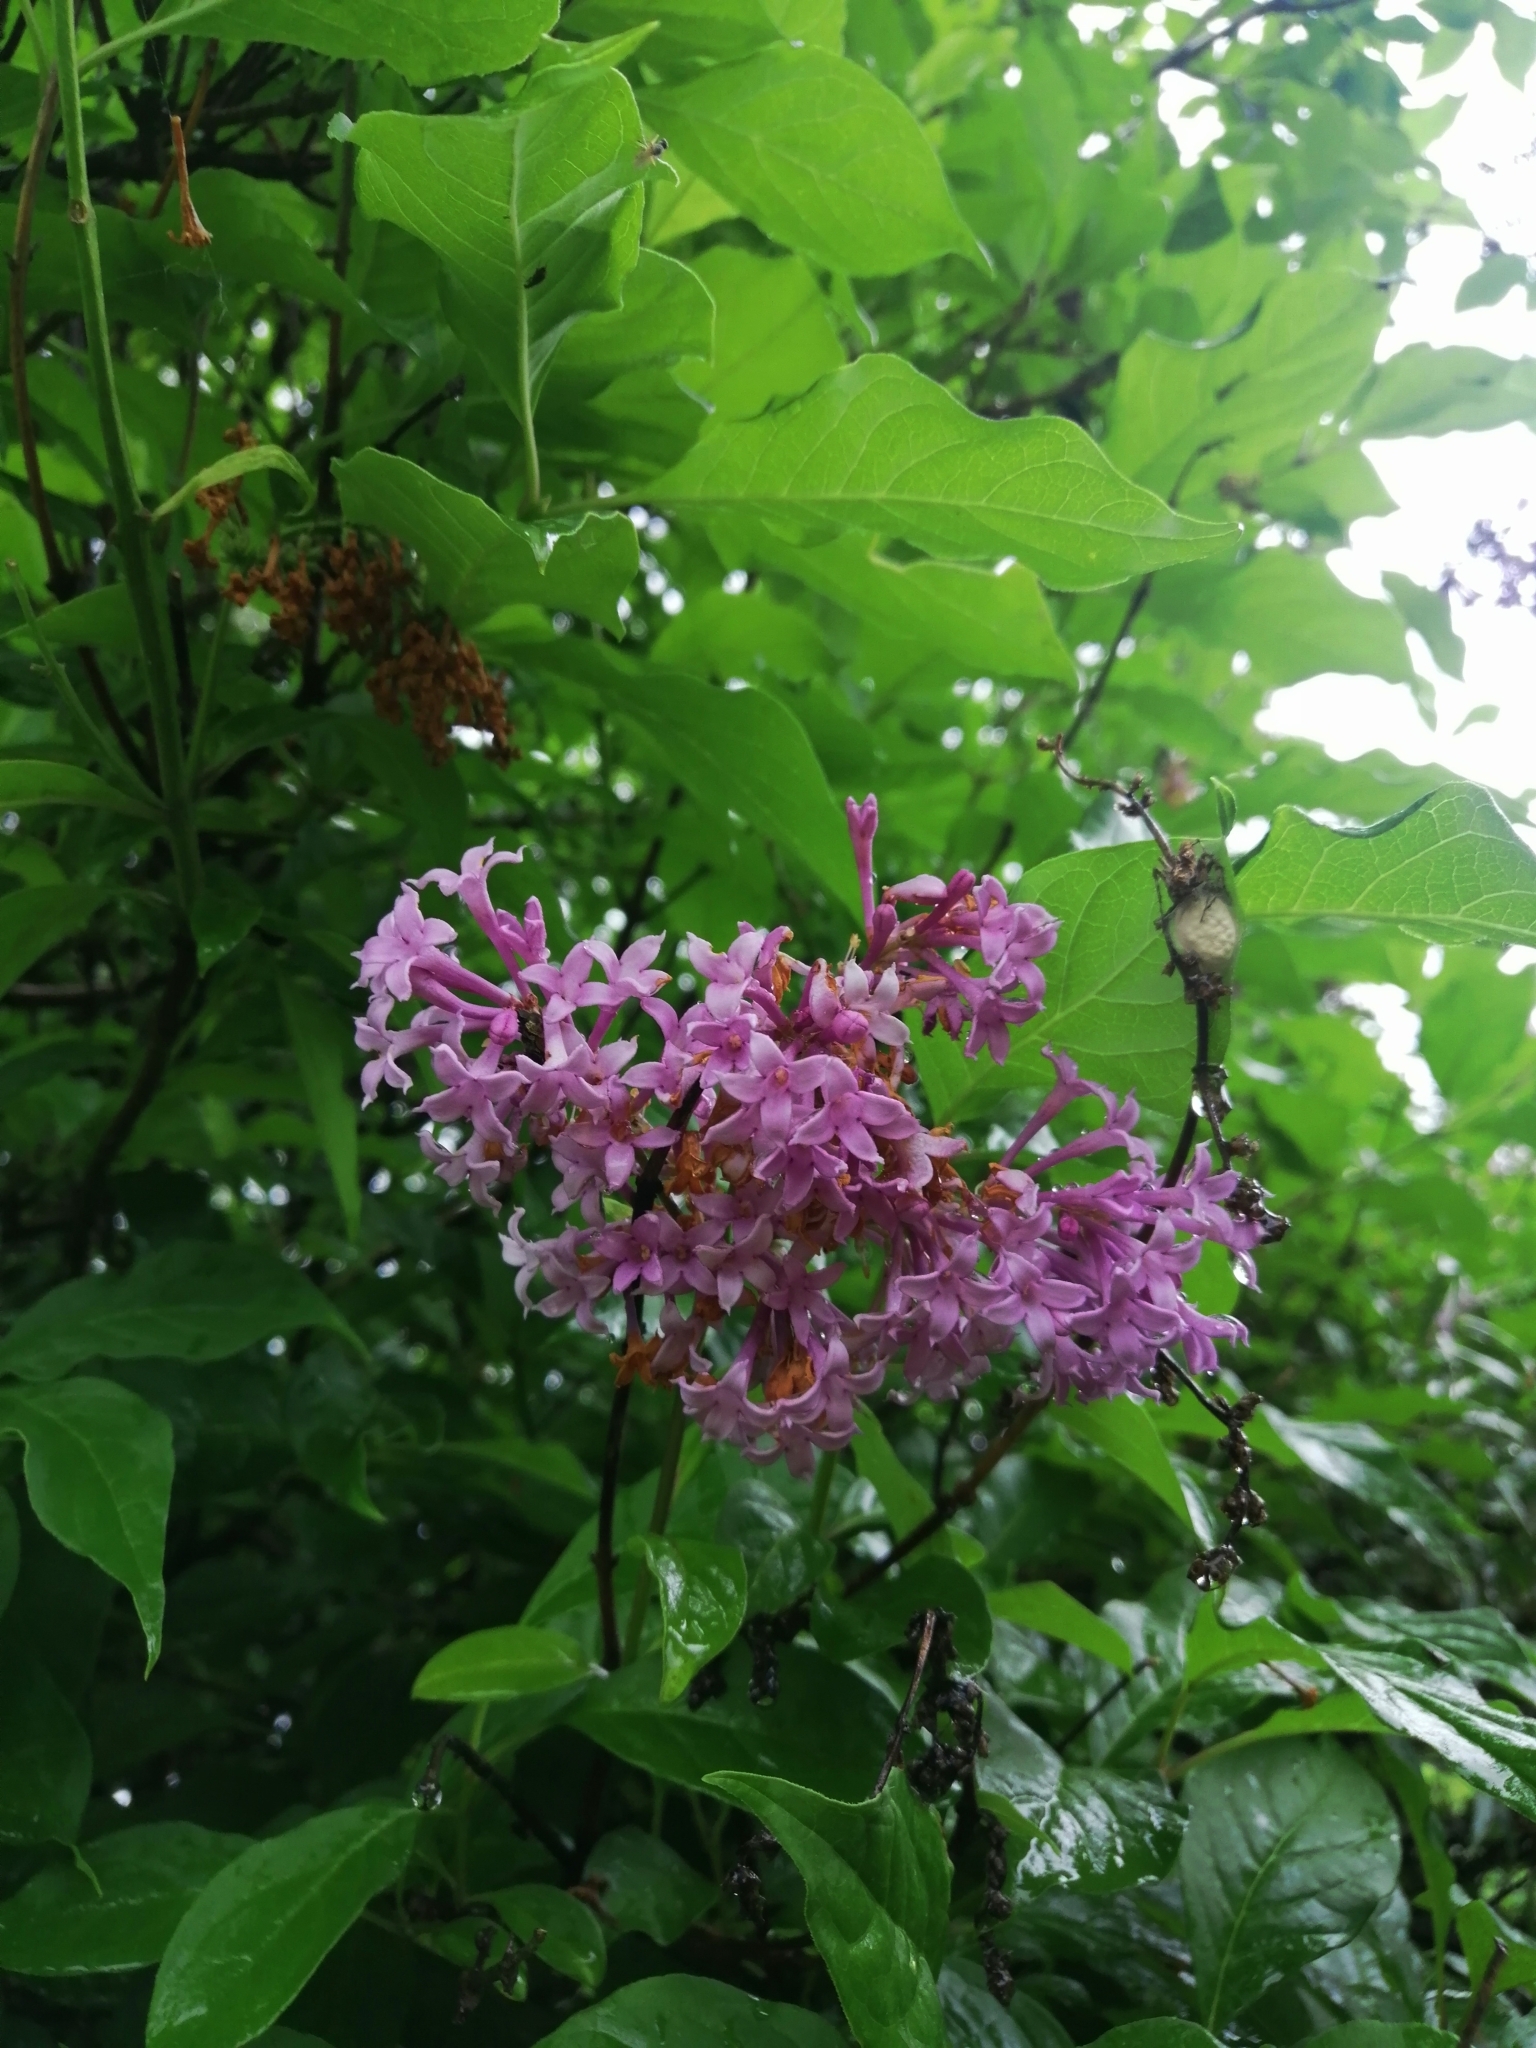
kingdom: Plantae
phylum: Tracheophyta
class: Magnoliopsida
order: Lamiales
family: Oleaceae
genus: Syringa
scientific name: Syringa josikaea
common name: Hungarian lilac
